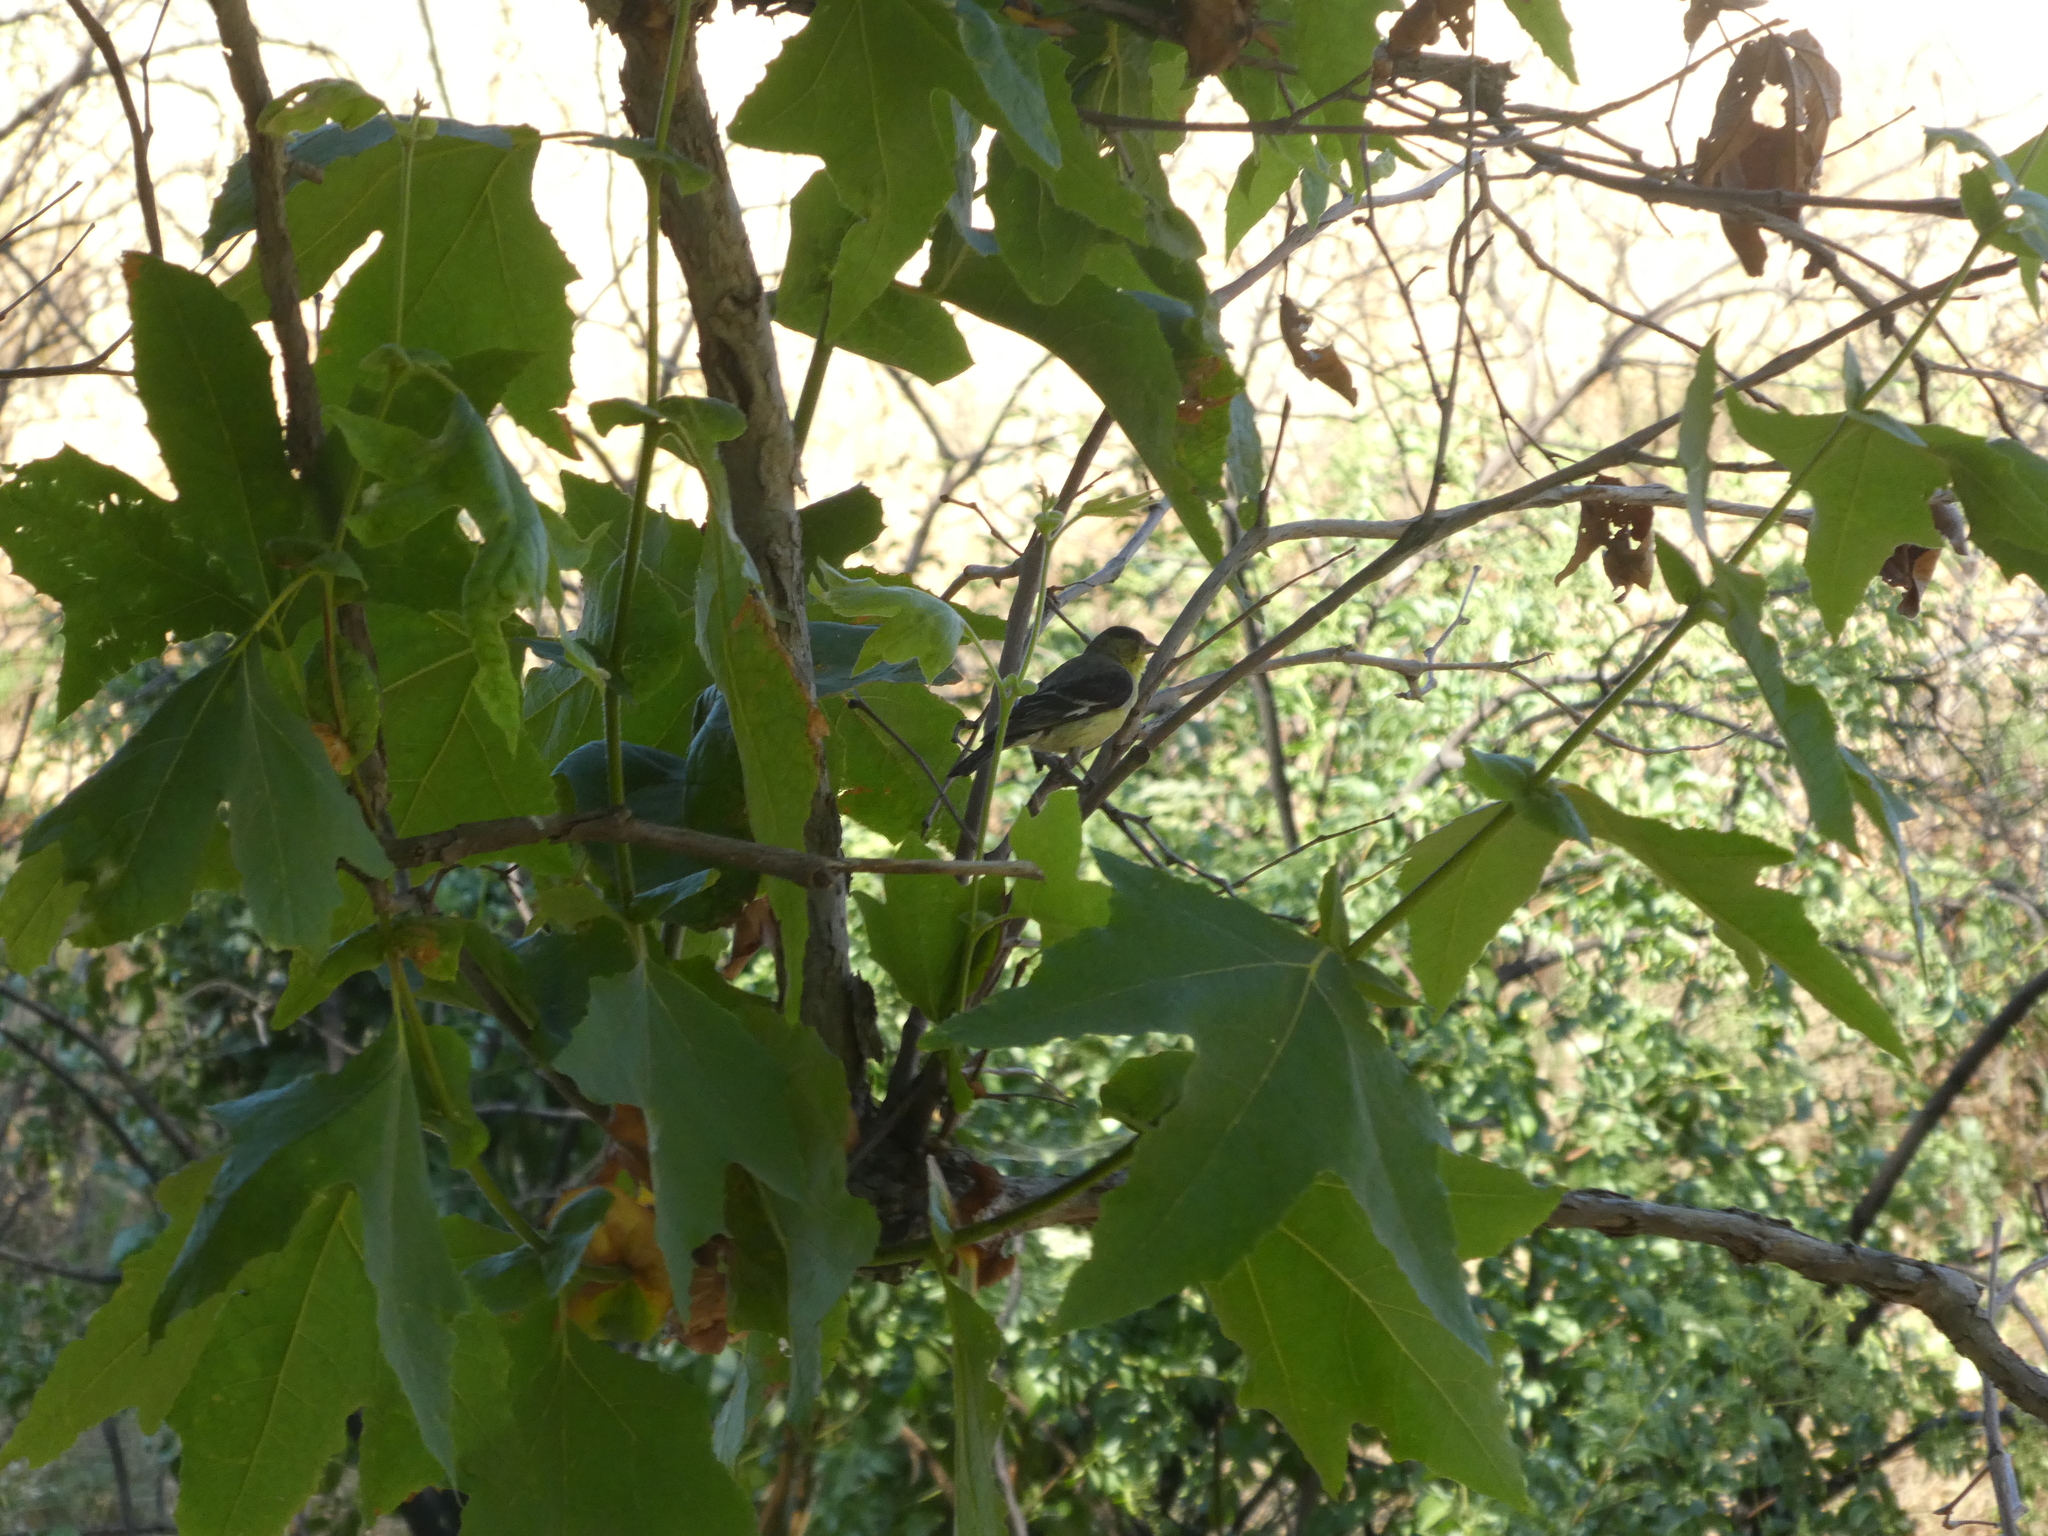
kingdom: Animalia
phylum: Chordata
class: Aves
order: Passeriformes
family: Fringillidae
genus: Spinus
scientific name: Spinus psaltria
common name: Lesser goldfinch
